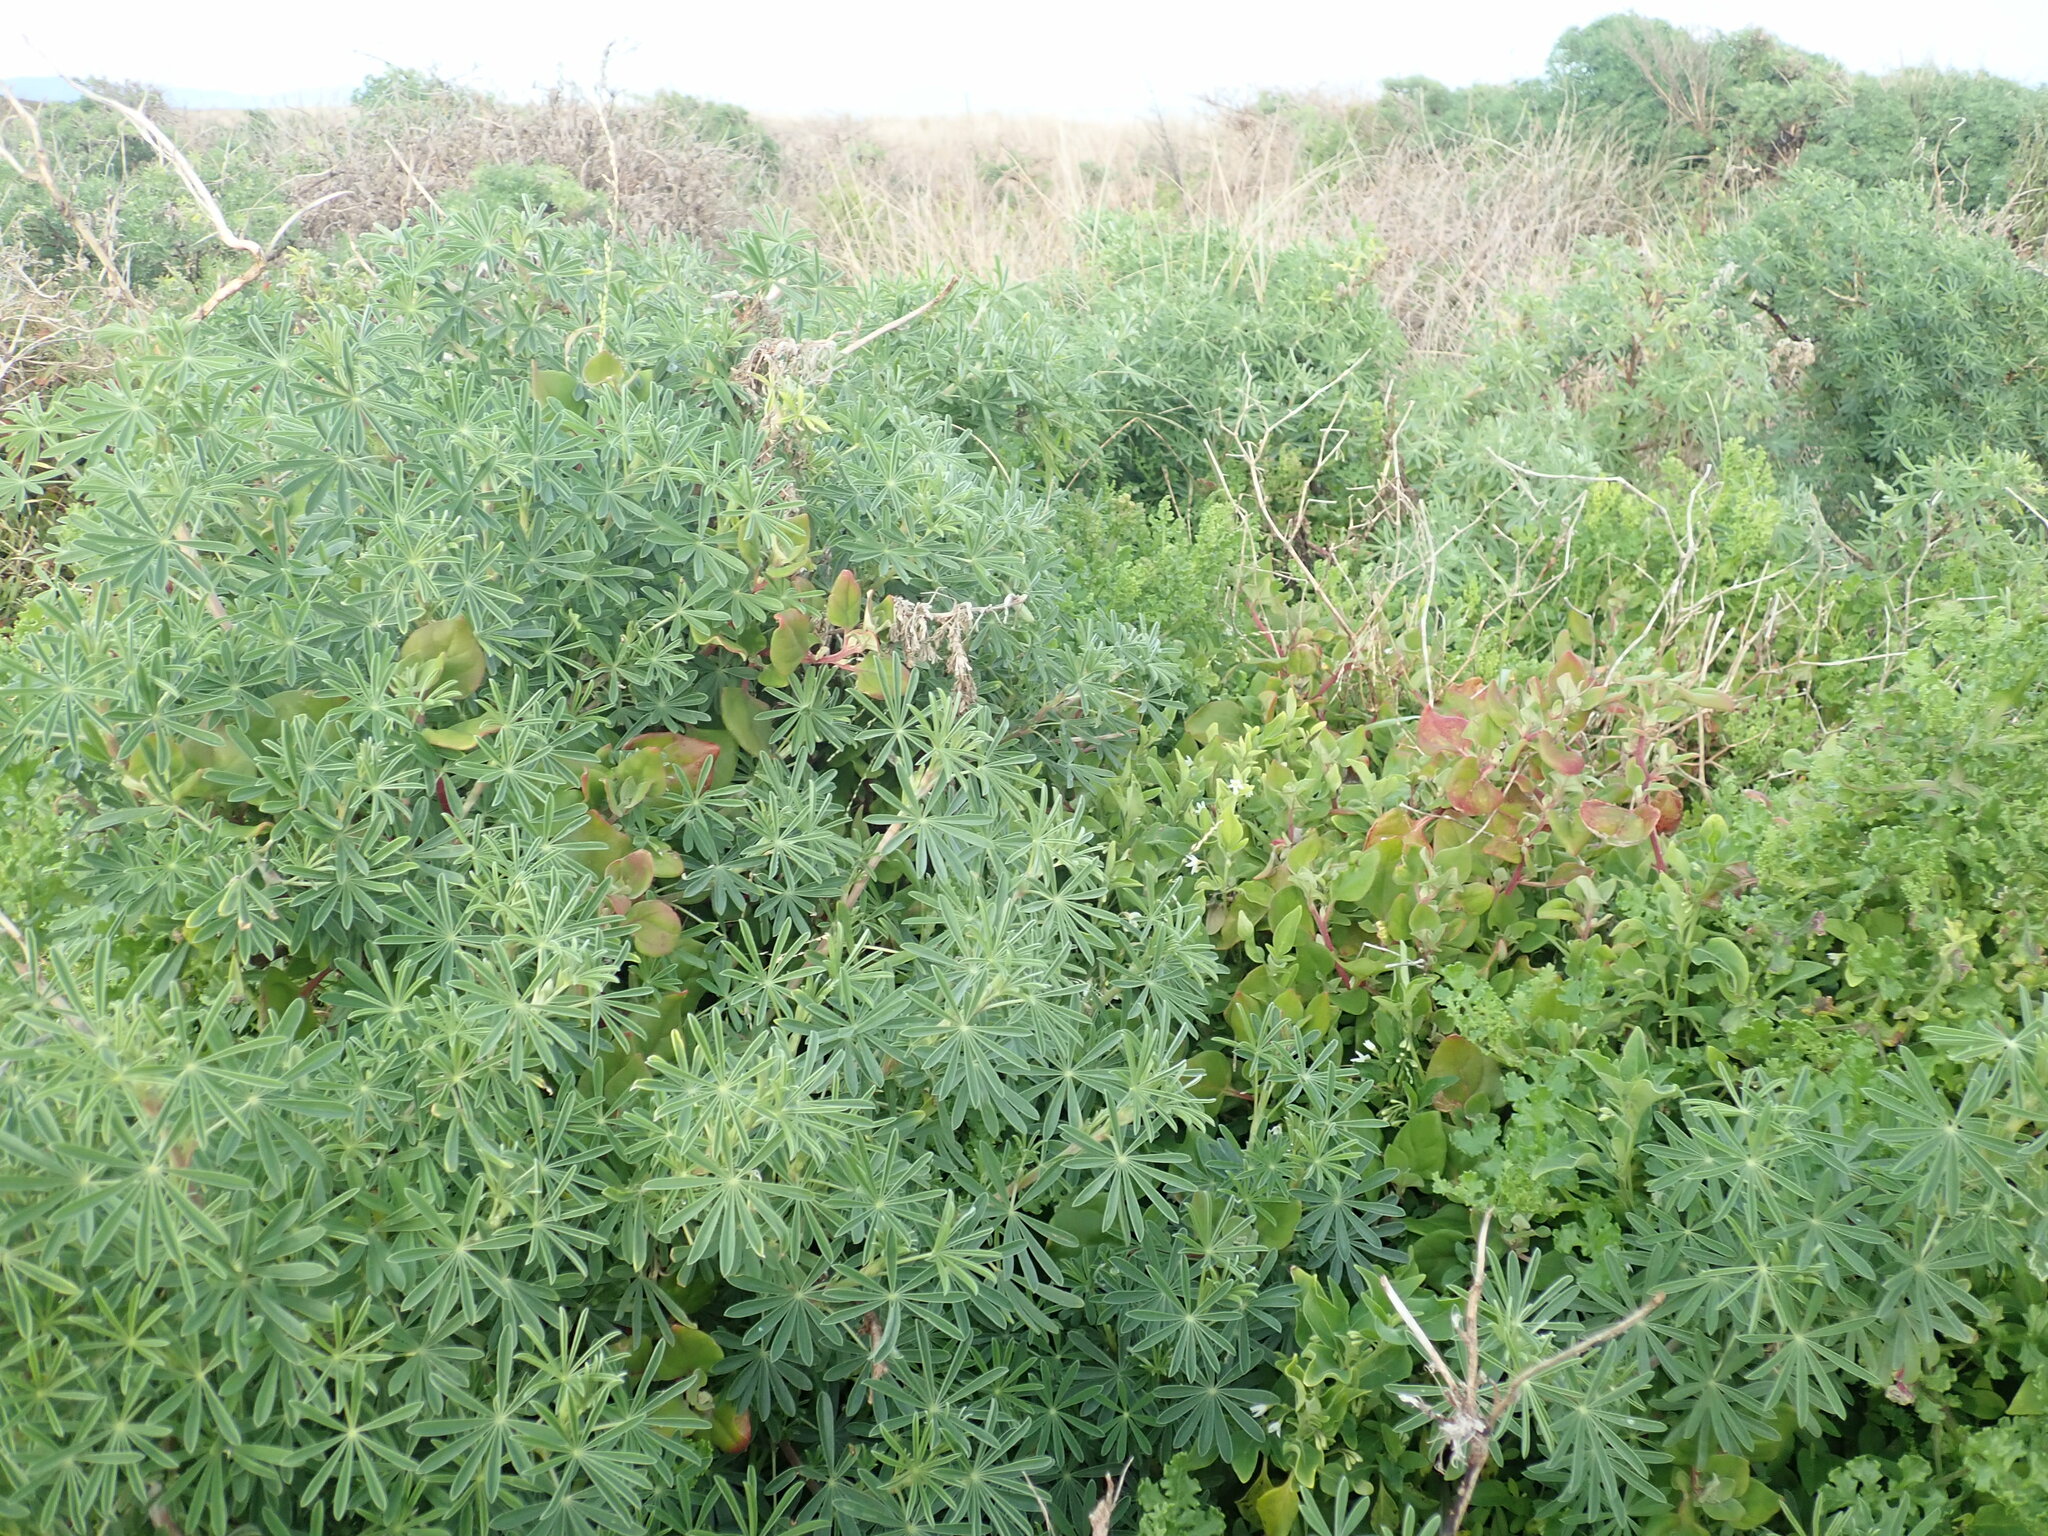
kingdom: Plantae
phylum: Tracheophyta
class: Magnoliopsida
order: Caryophyllales
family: Aizoaceae
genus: Tetragonia
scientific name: Tetragonia implexicoma
